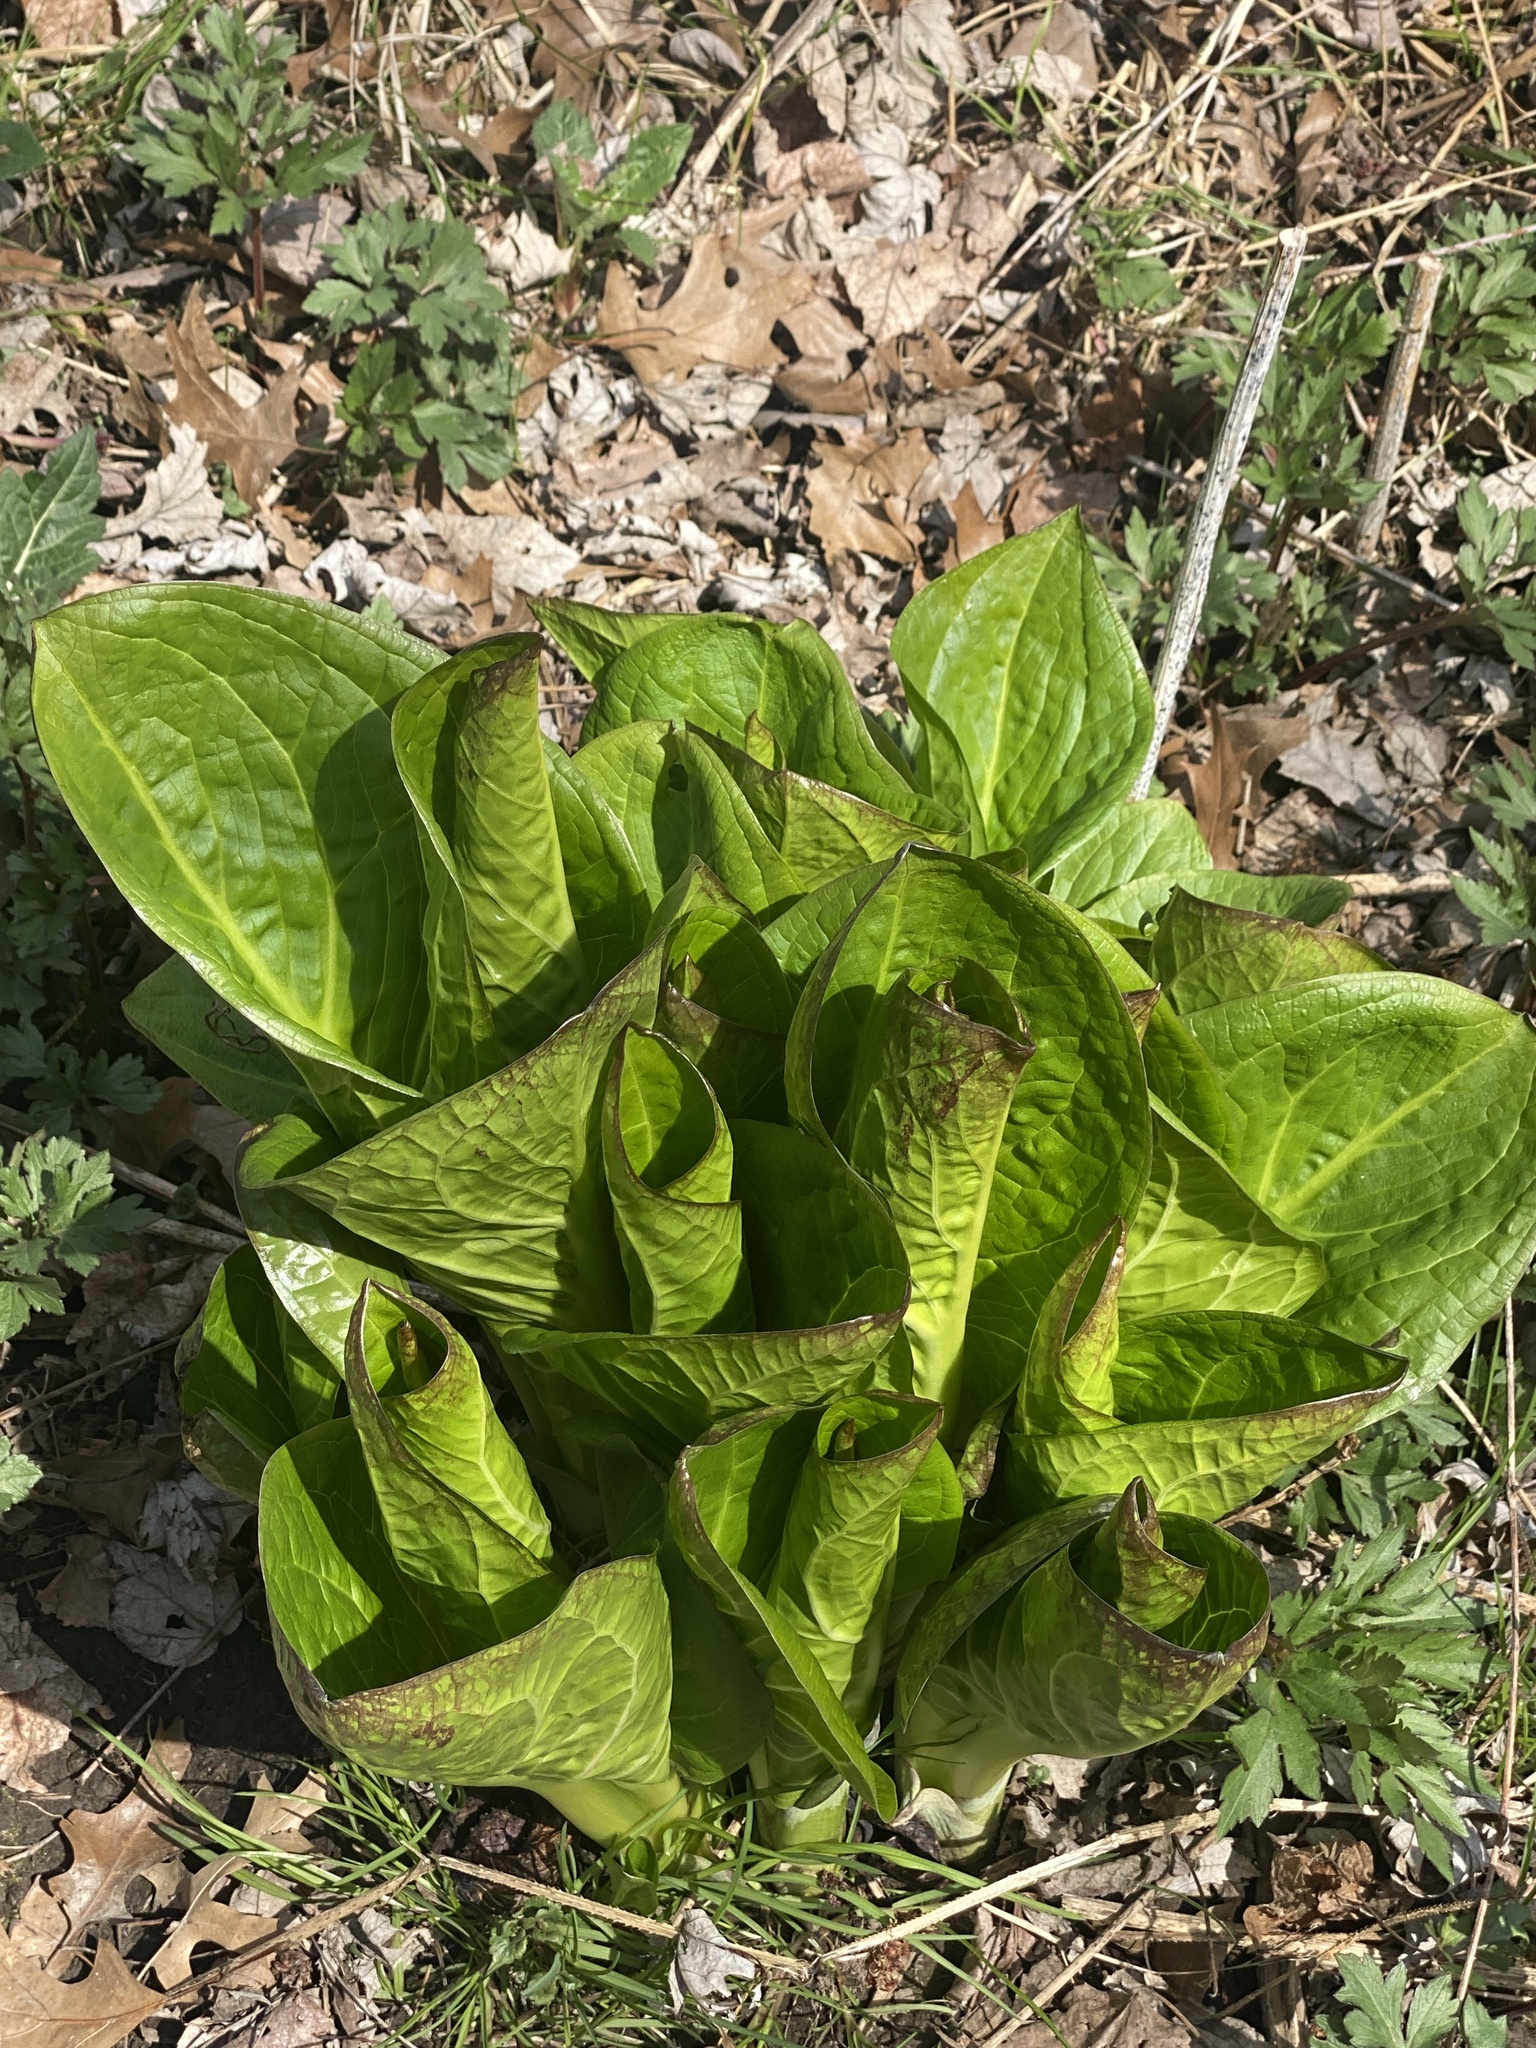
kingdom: Plantae
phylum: Tracheophyta
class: Liliopsida
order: Alismatales
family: Araceae
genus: Symplocarpus
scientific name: Symplocarpus foetidus
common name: Eastern skunk cabbage
